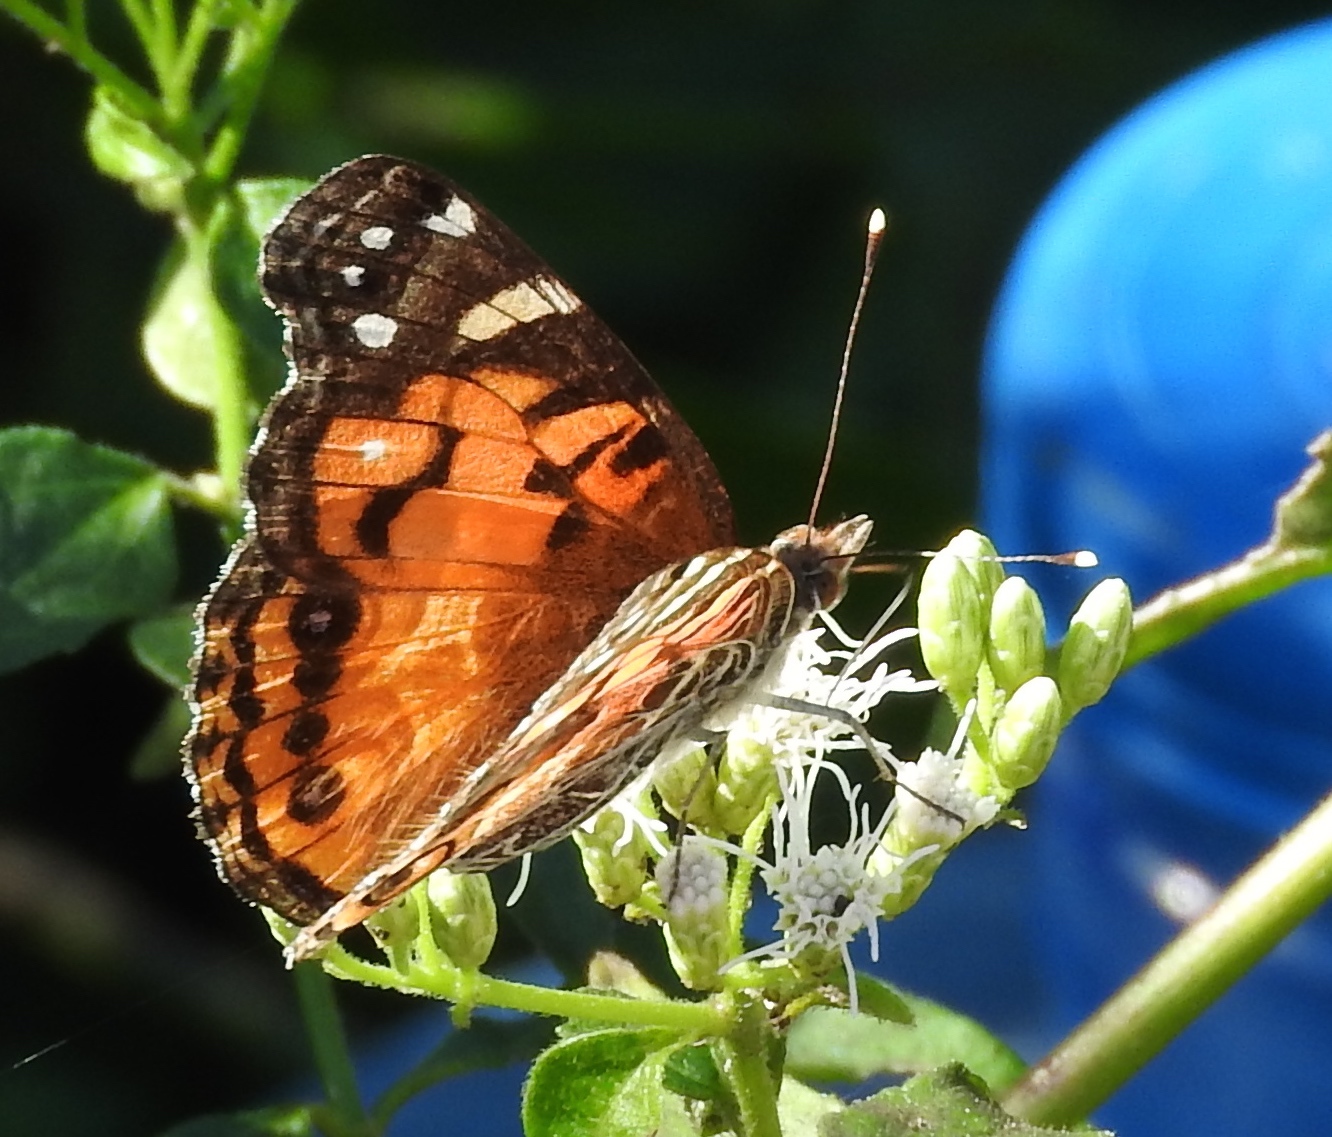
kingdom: Animalia
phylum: Arthropoda
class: Insecta
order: Lepidoptera
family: Nymphalidae
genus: Vanessa
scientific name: Vanessa virginiensis
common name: American lady
